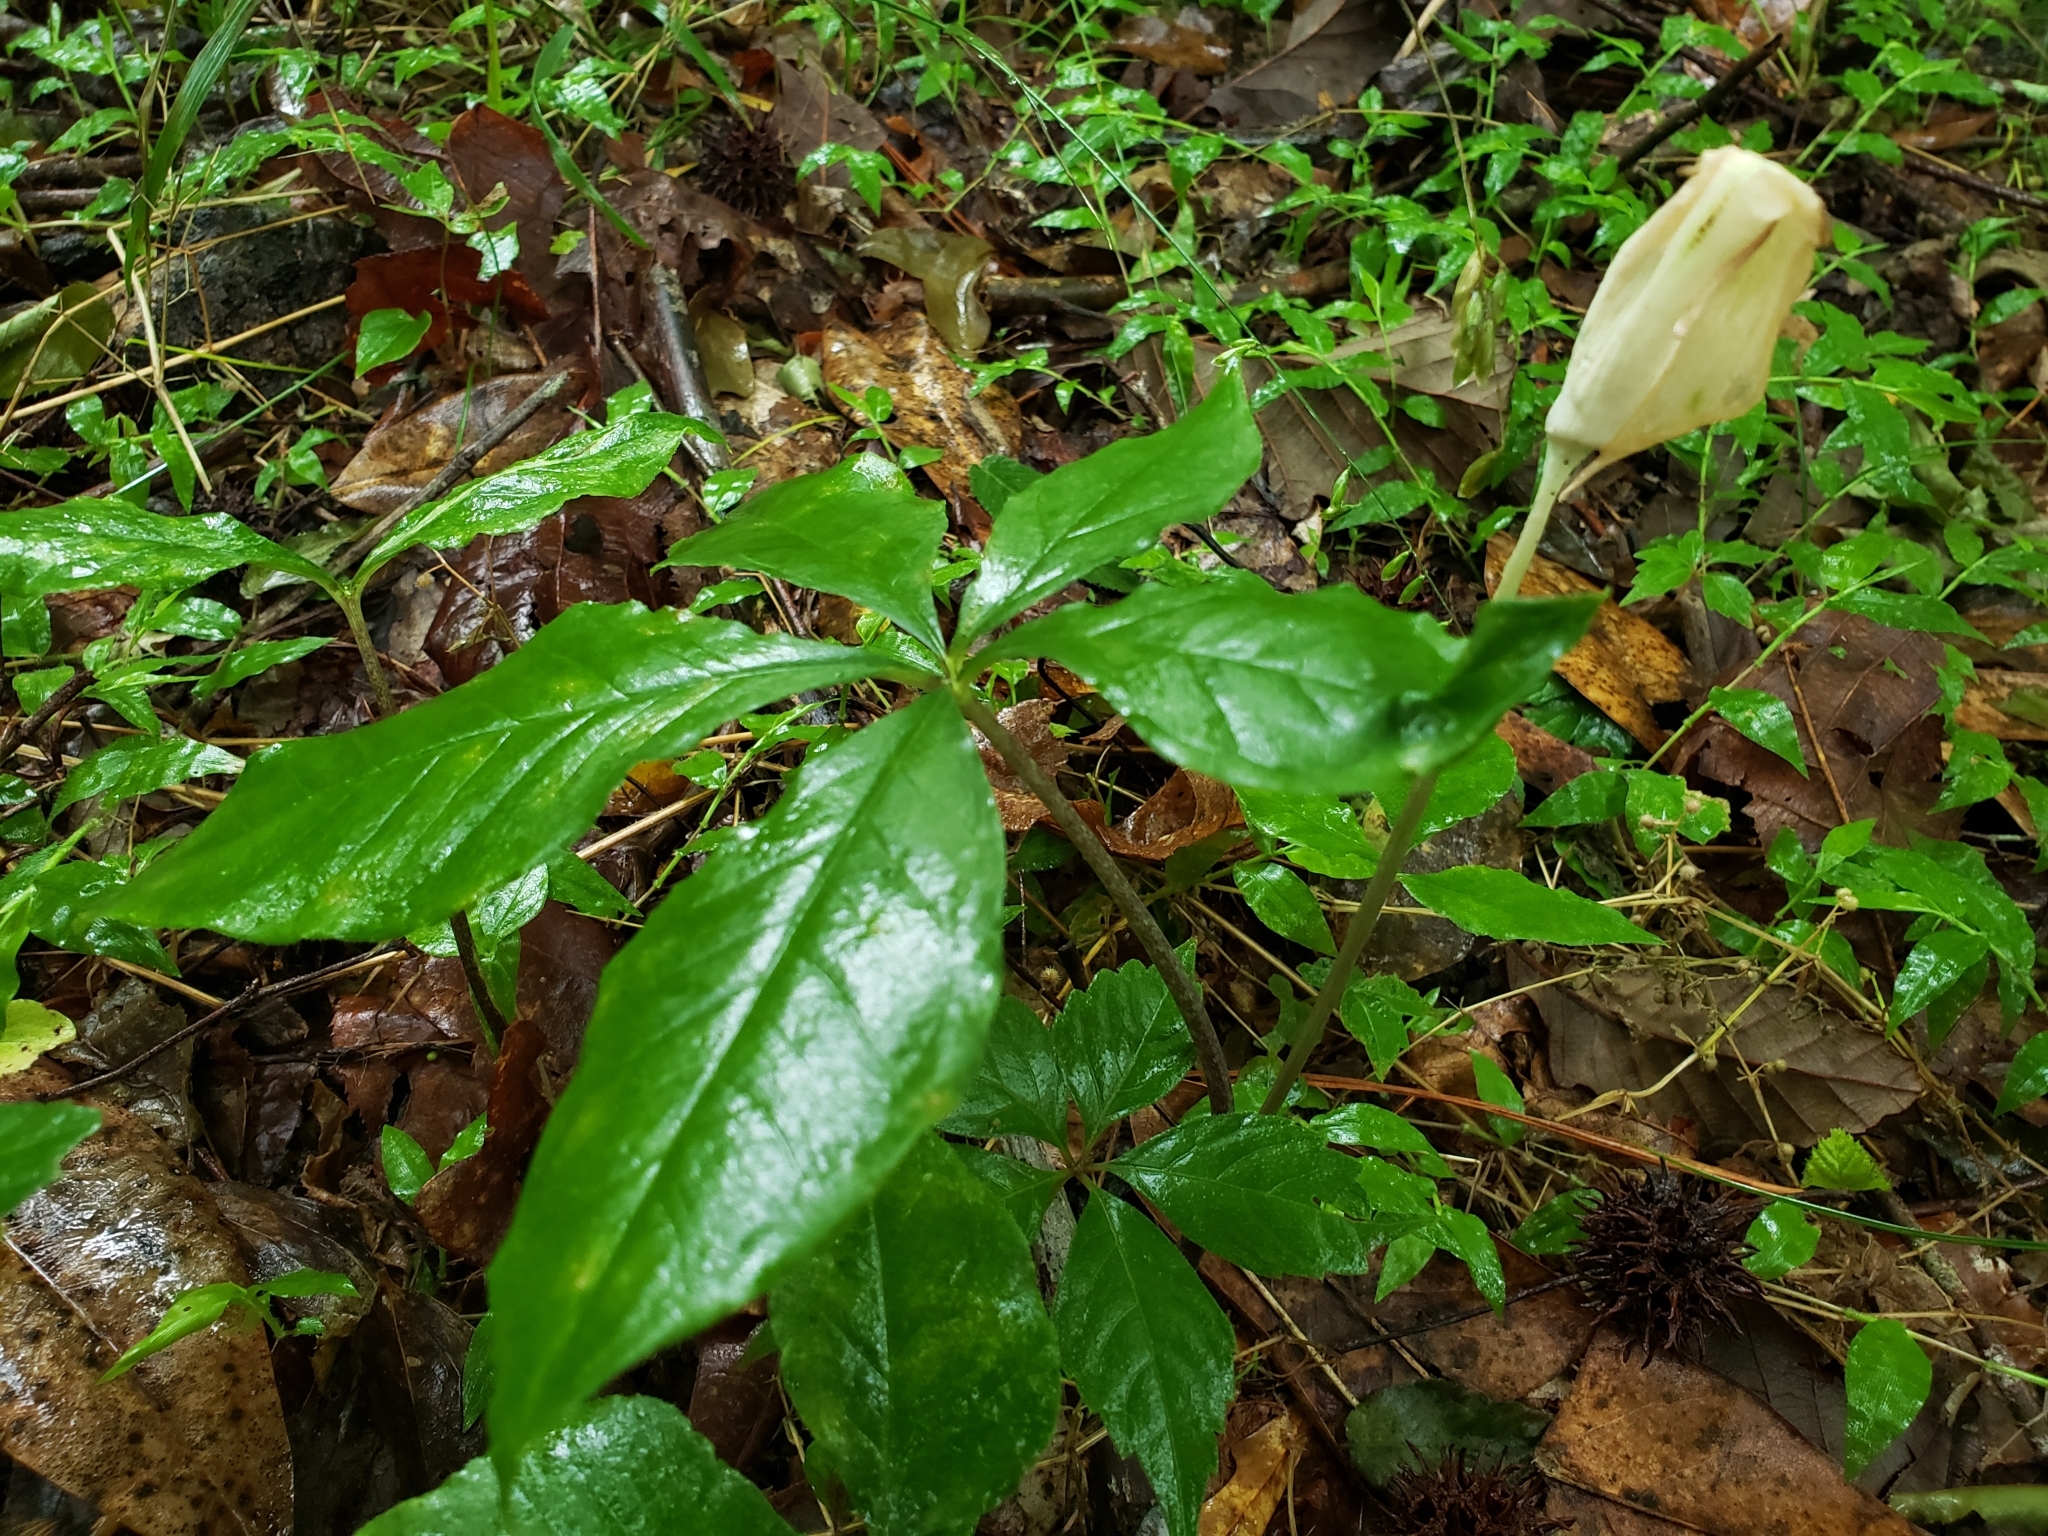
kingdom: Plantae
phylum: Tracheophyta
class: Liliopsida
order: Alismatales
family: Araceae
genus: Arisaema
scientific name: Arisaema quinatum
